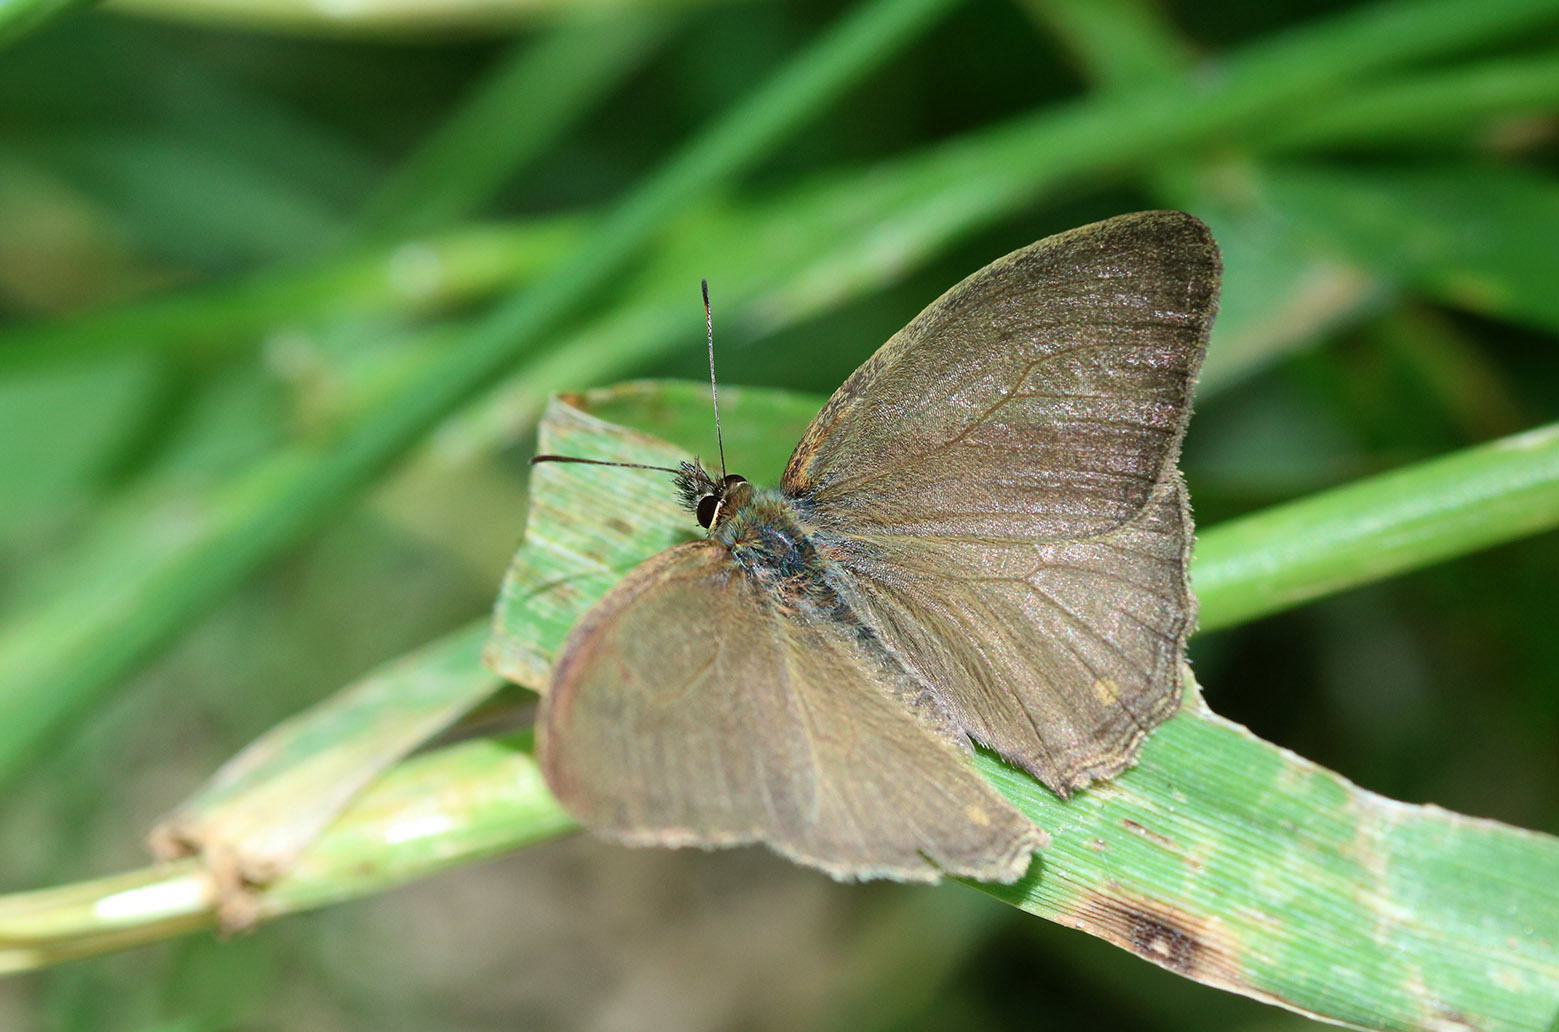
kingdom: Animalia
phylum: Arthropoda
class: Insecta
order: Lepidoptera
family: Nymphalidae
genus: Euptychia
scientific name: Euptychia
